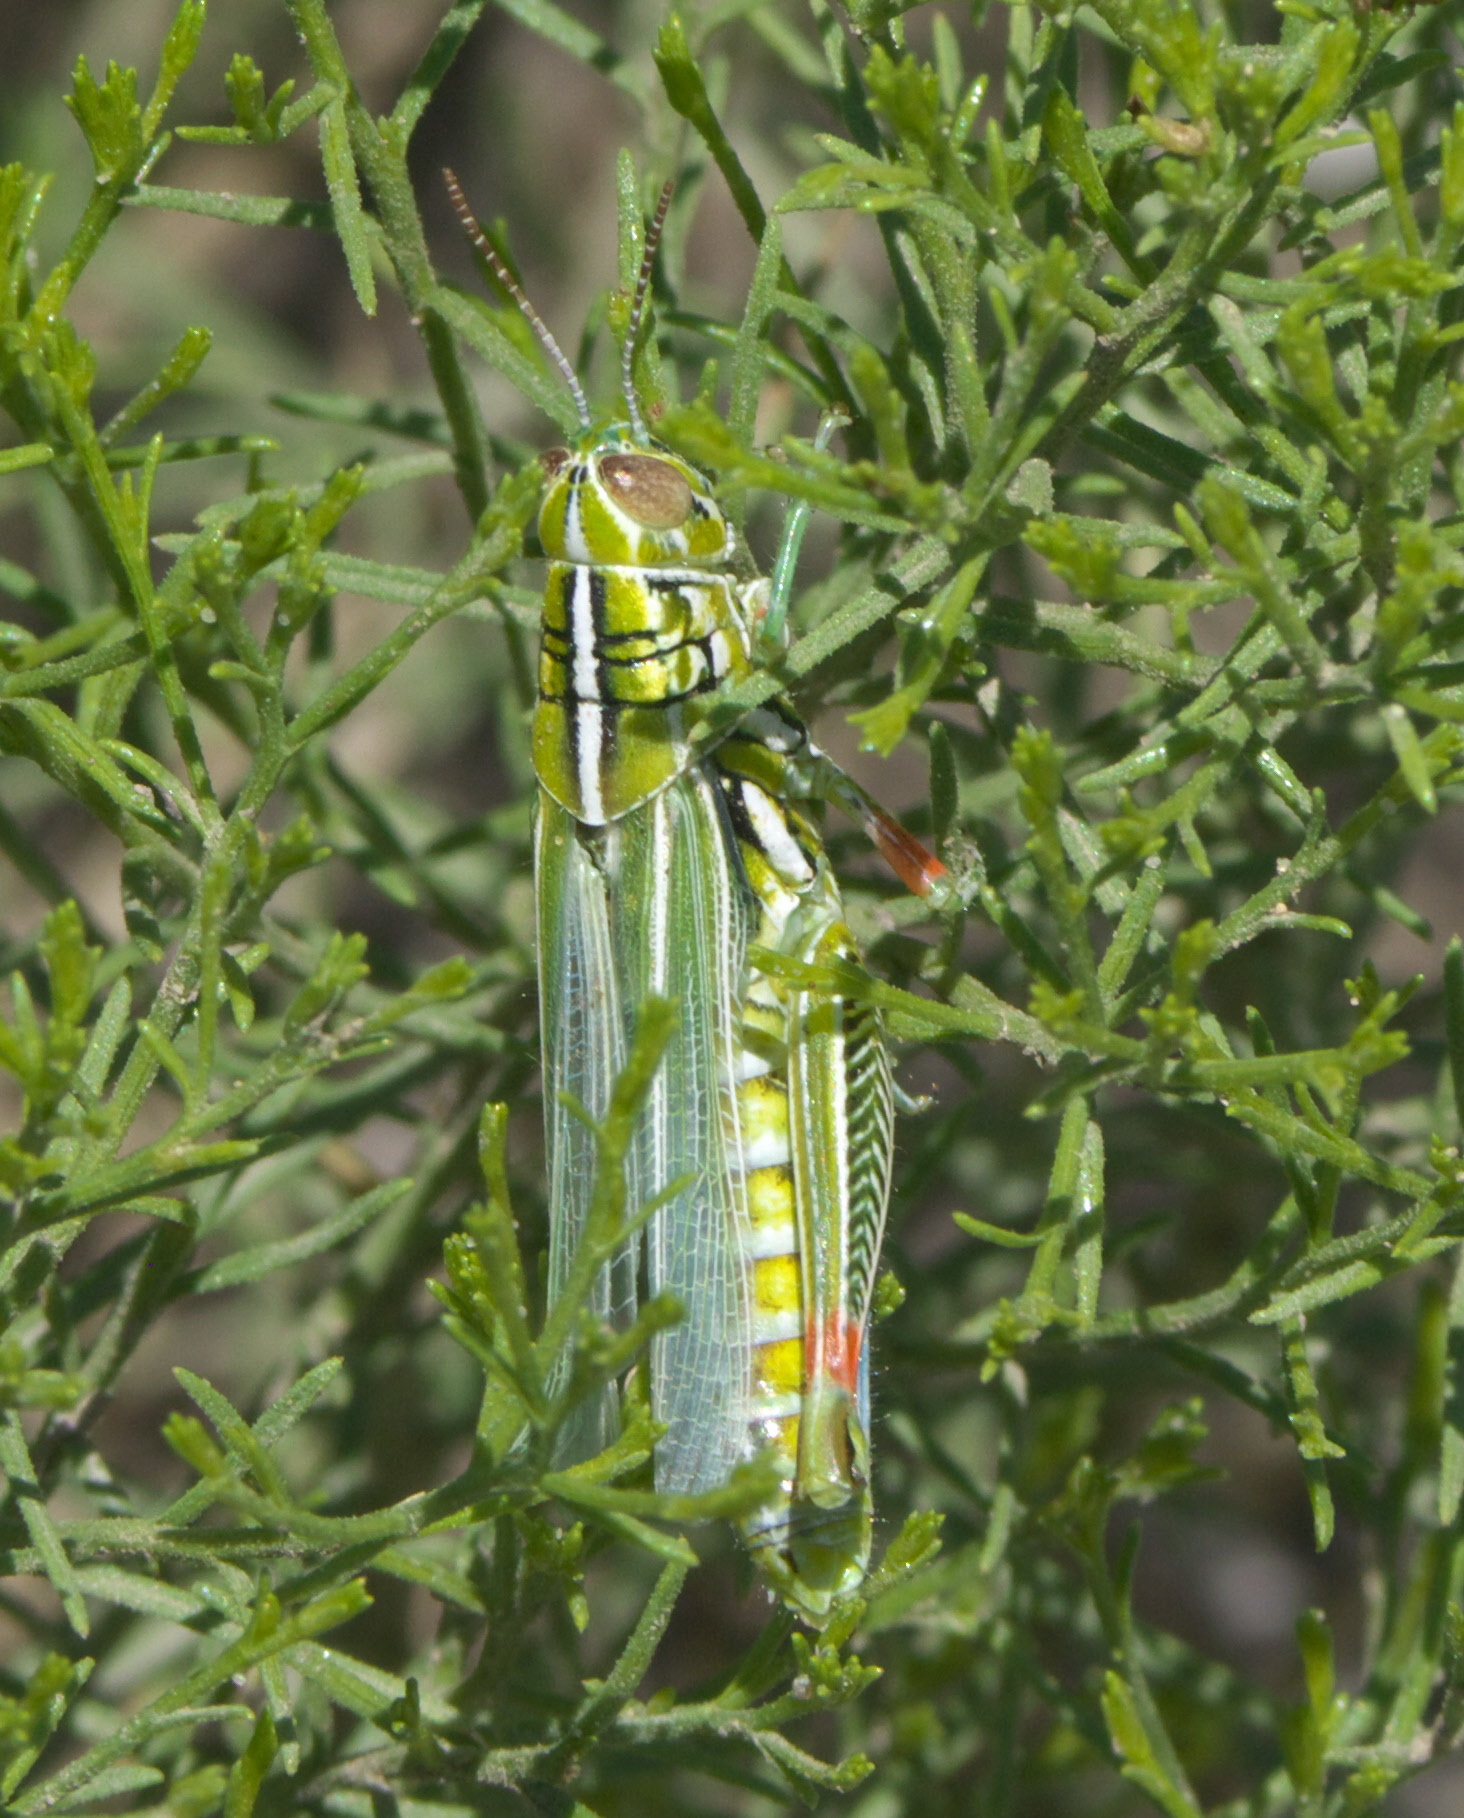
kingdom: Animalia
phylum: Arthropoda
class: Insecta
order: Orthoptera
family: Acrididae
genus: Hesperotettix
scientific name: Hesperotettix viridis
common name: Meadow purple-striped grasshopper
